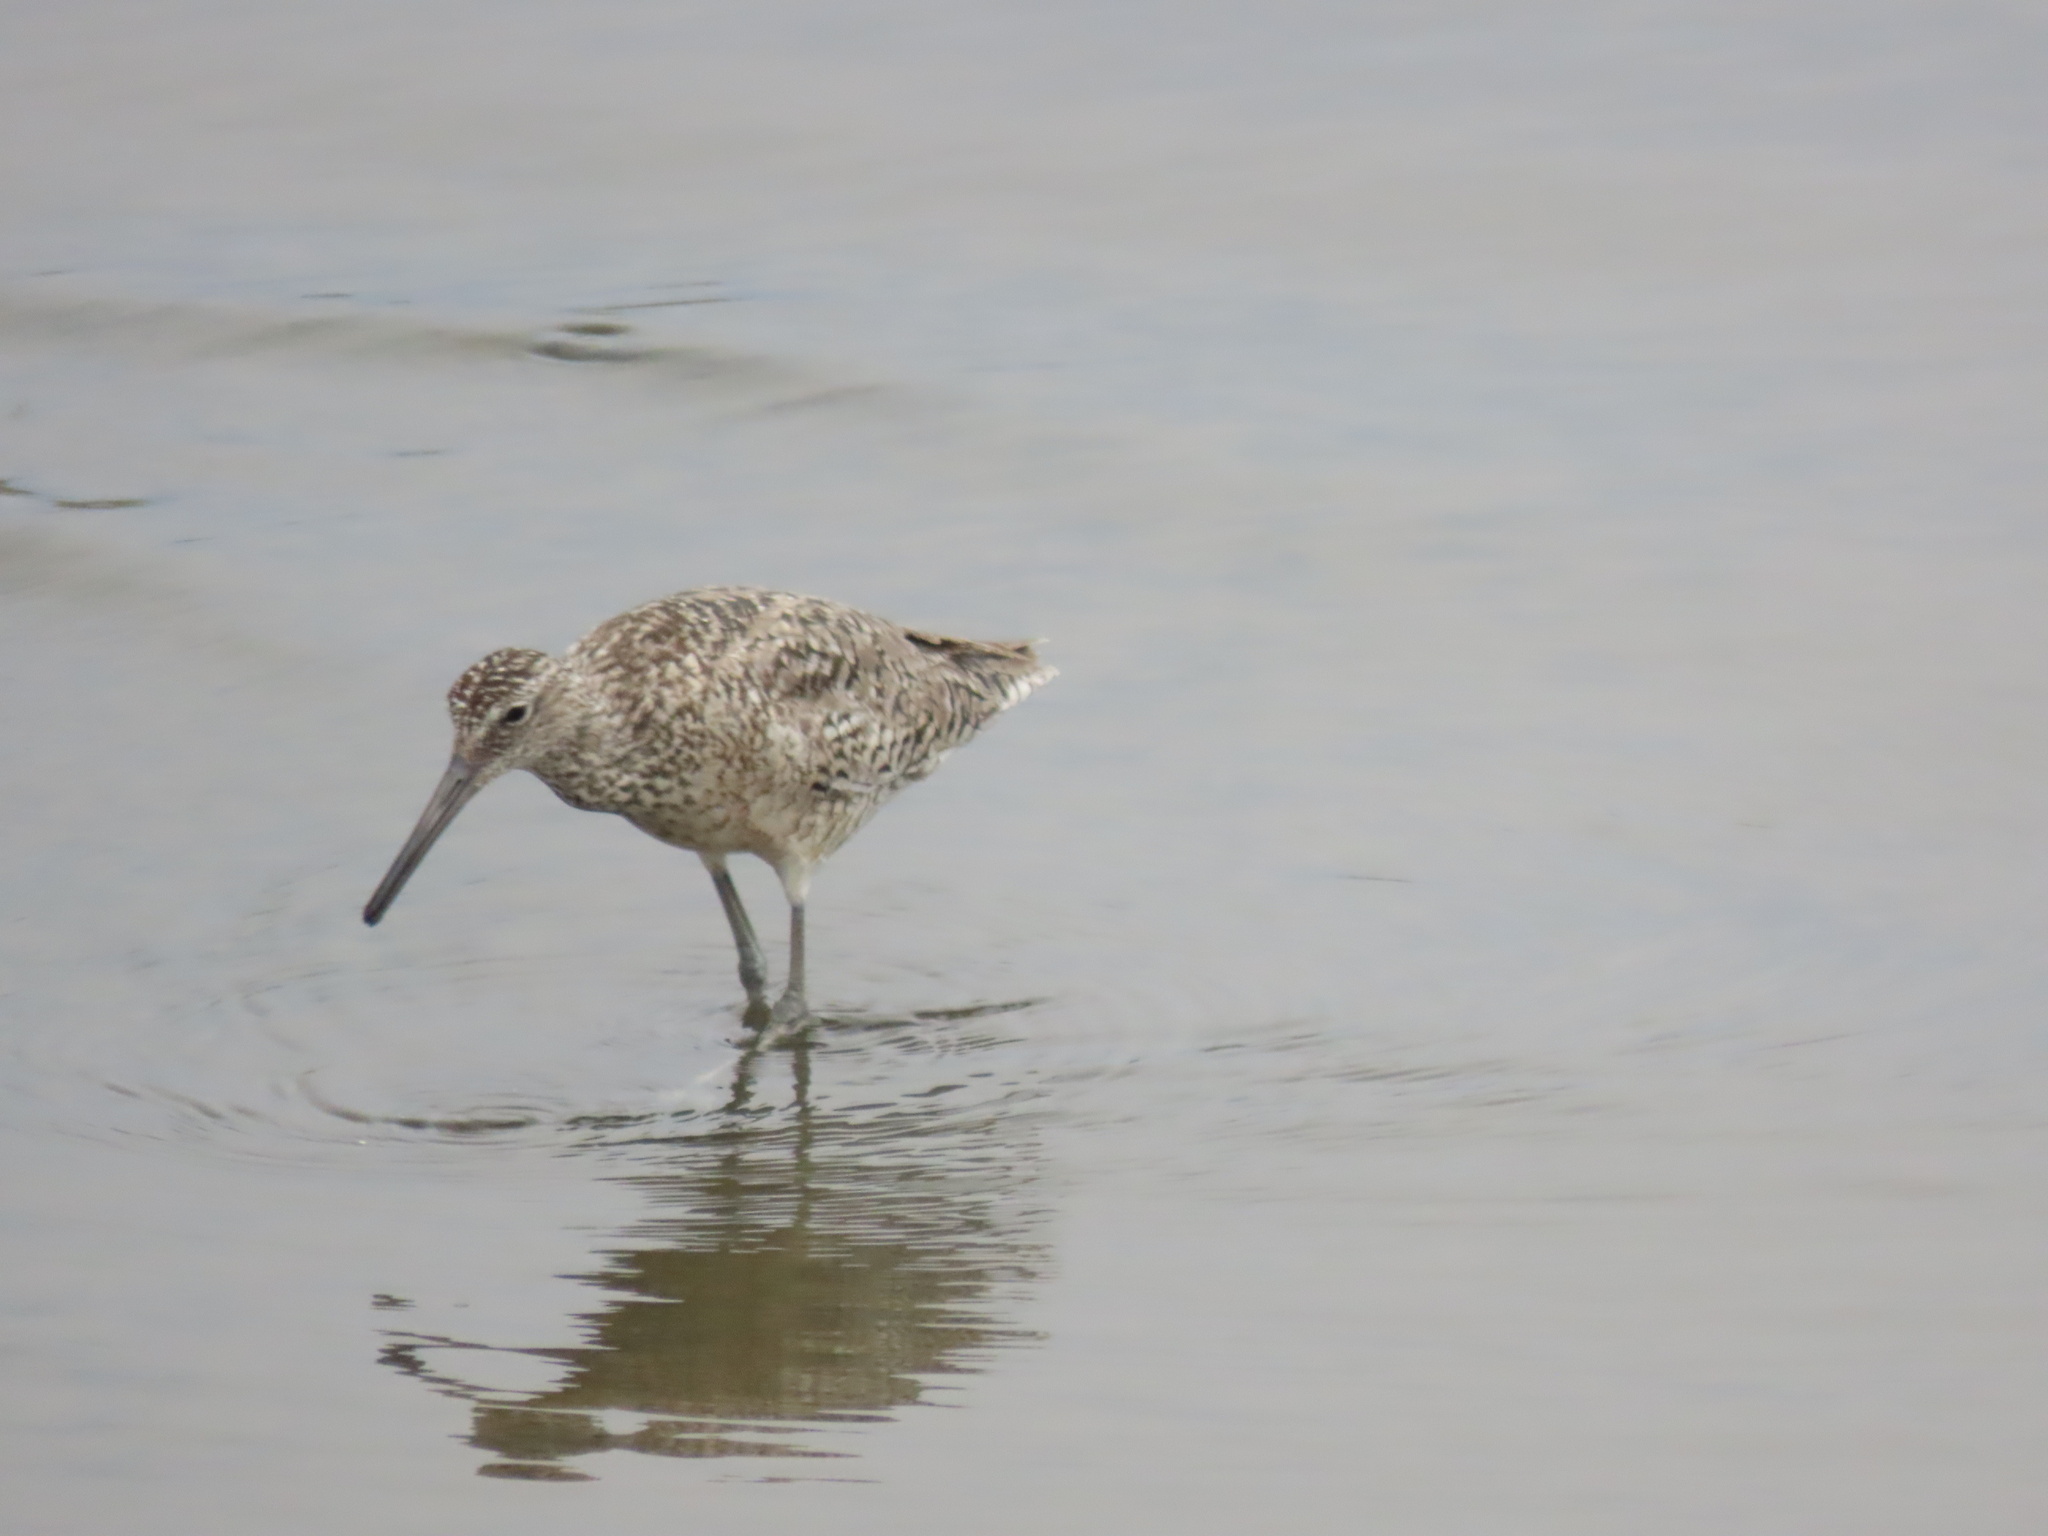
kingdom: Animalia
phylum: Chordata
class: Aves
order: Charadriiformes
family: Scolopacidae
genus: Tringa
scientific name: Tringa semipalmata
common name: Willet
